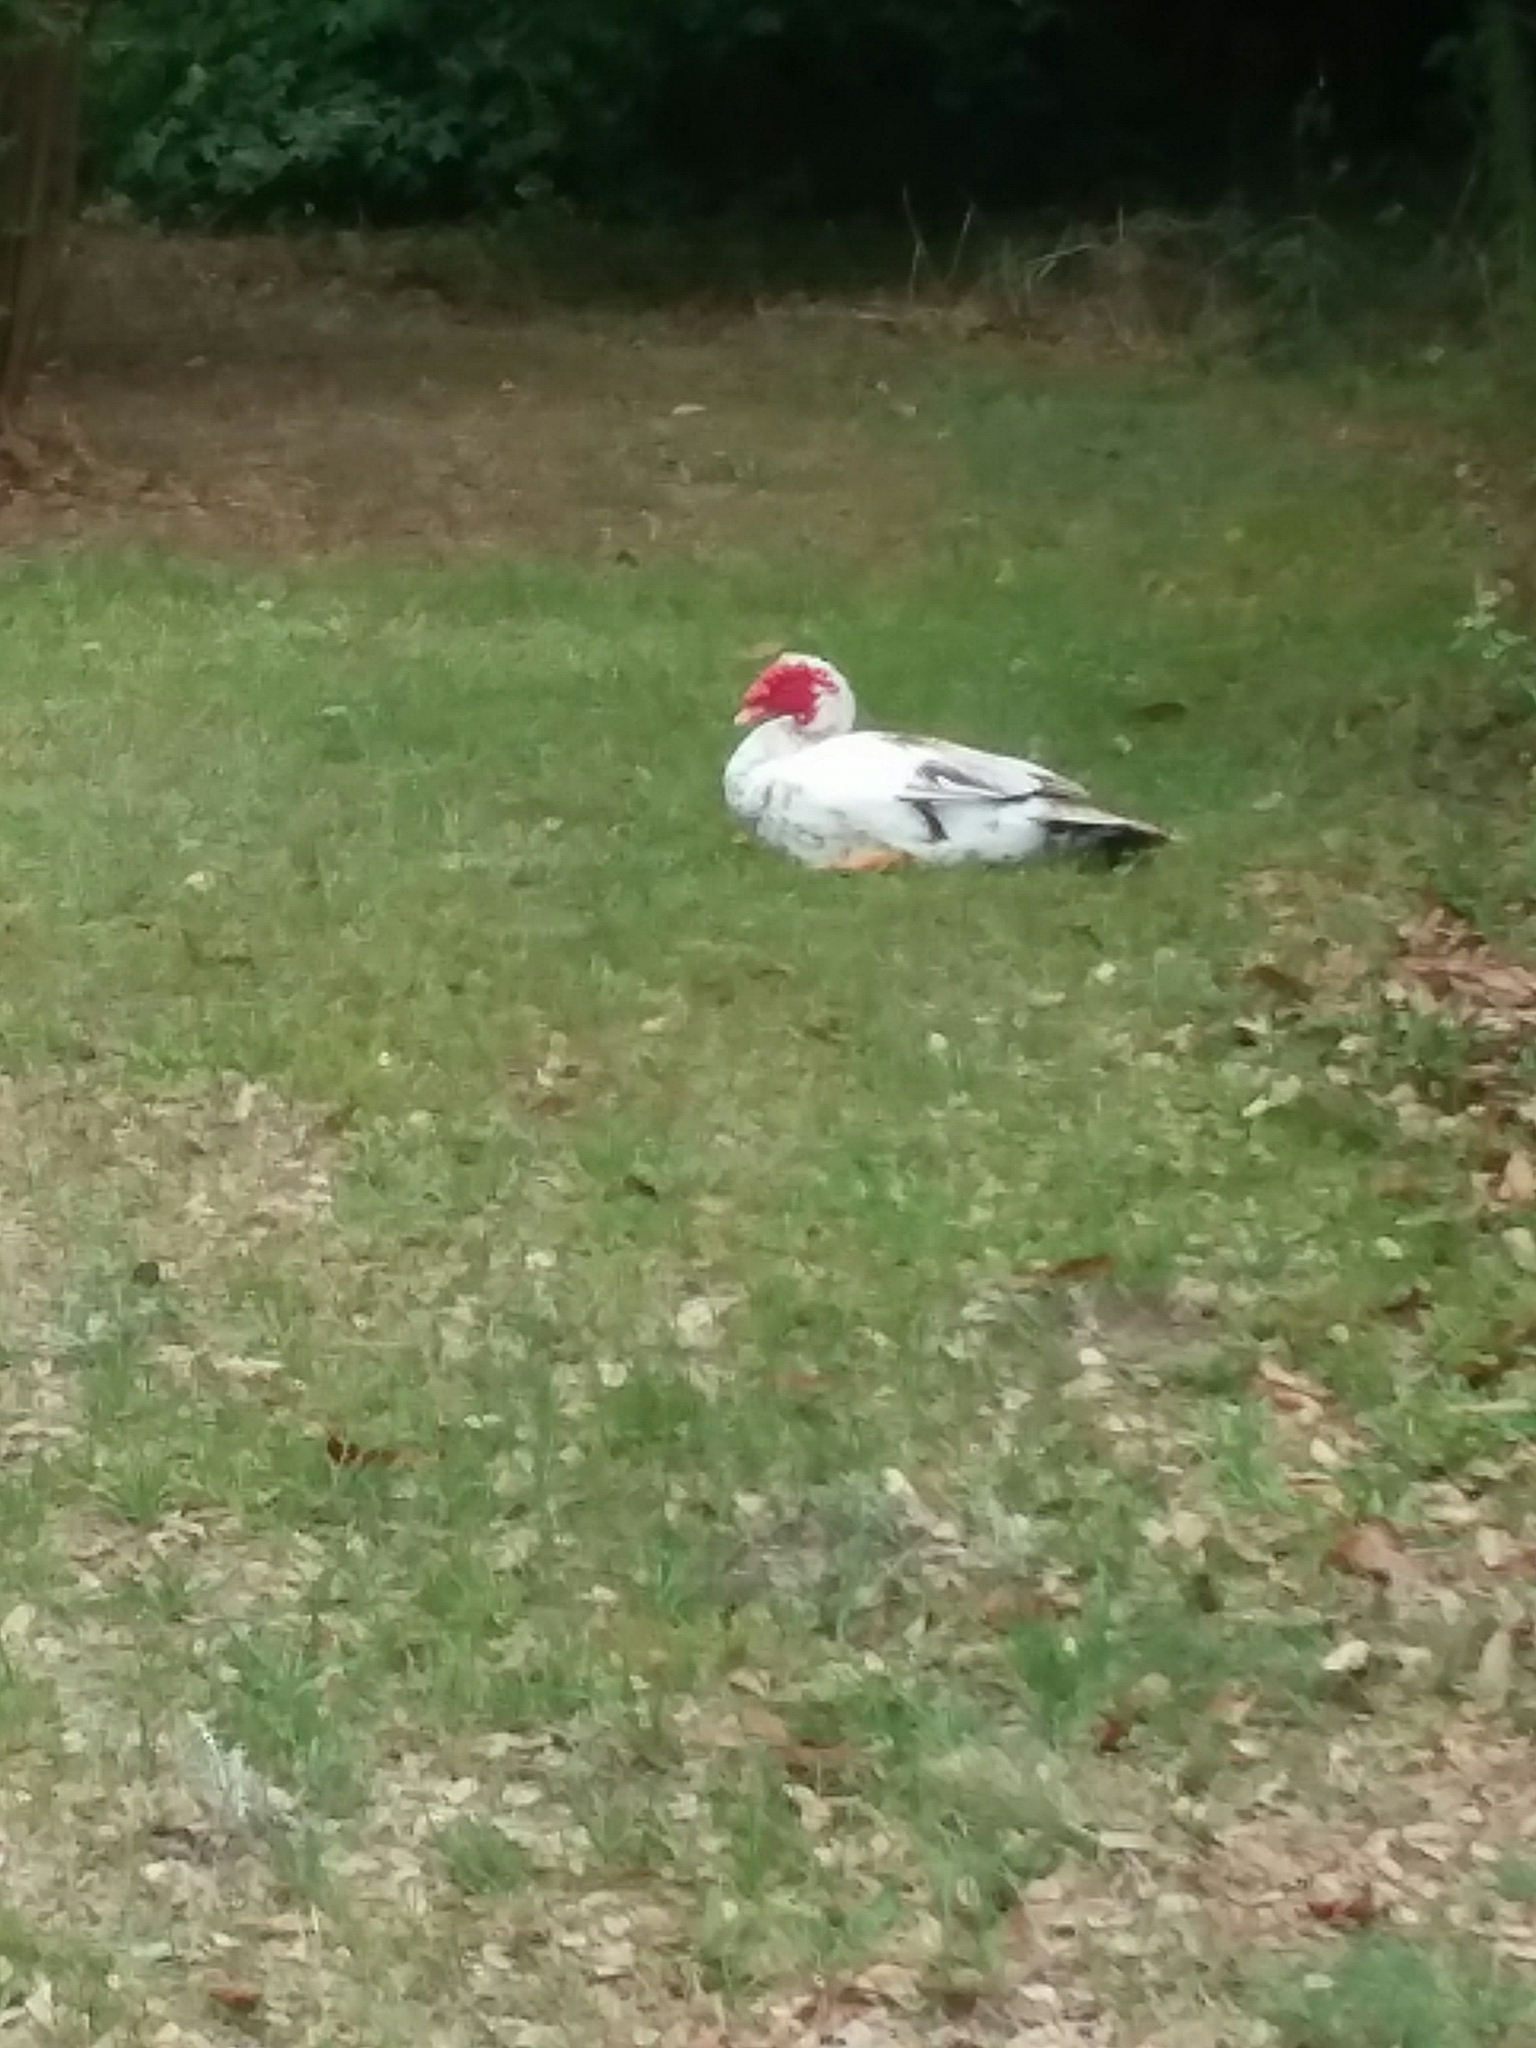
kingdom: Animalia
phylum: Chordata
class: Aves
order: Anseriformes
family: Anatidae
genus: Cairina
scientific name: Cairina moschata
